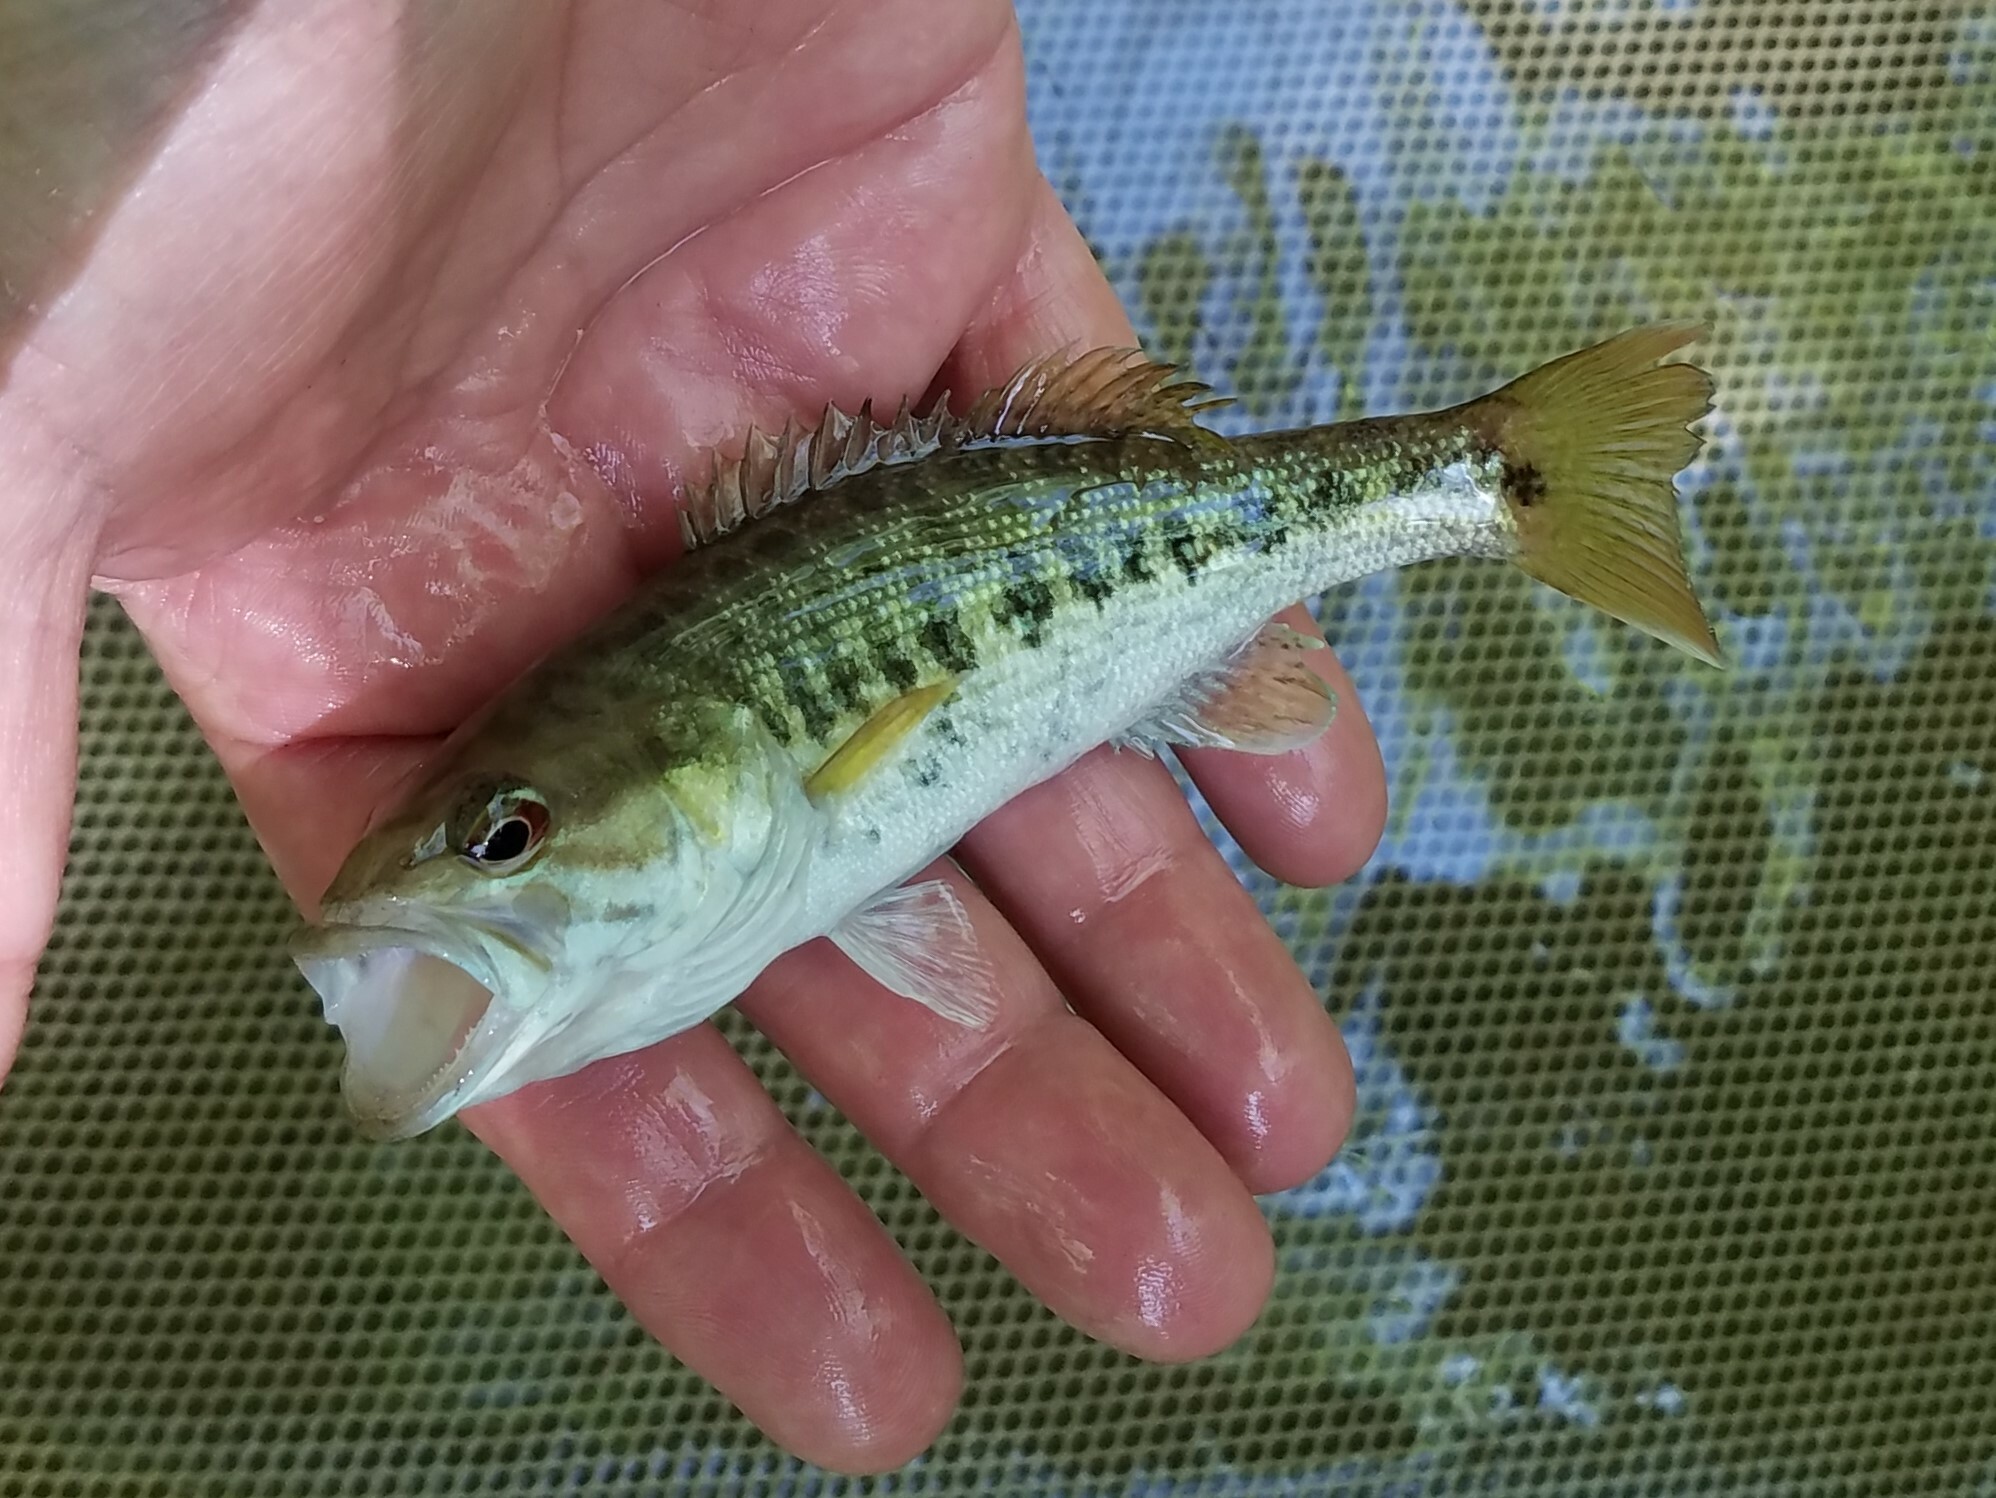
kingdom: Animalia
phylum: Chordata
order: Perciformes
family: Centrarchidae
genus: Micropterus
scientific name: Micropterus coosae
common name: Redeye bass
